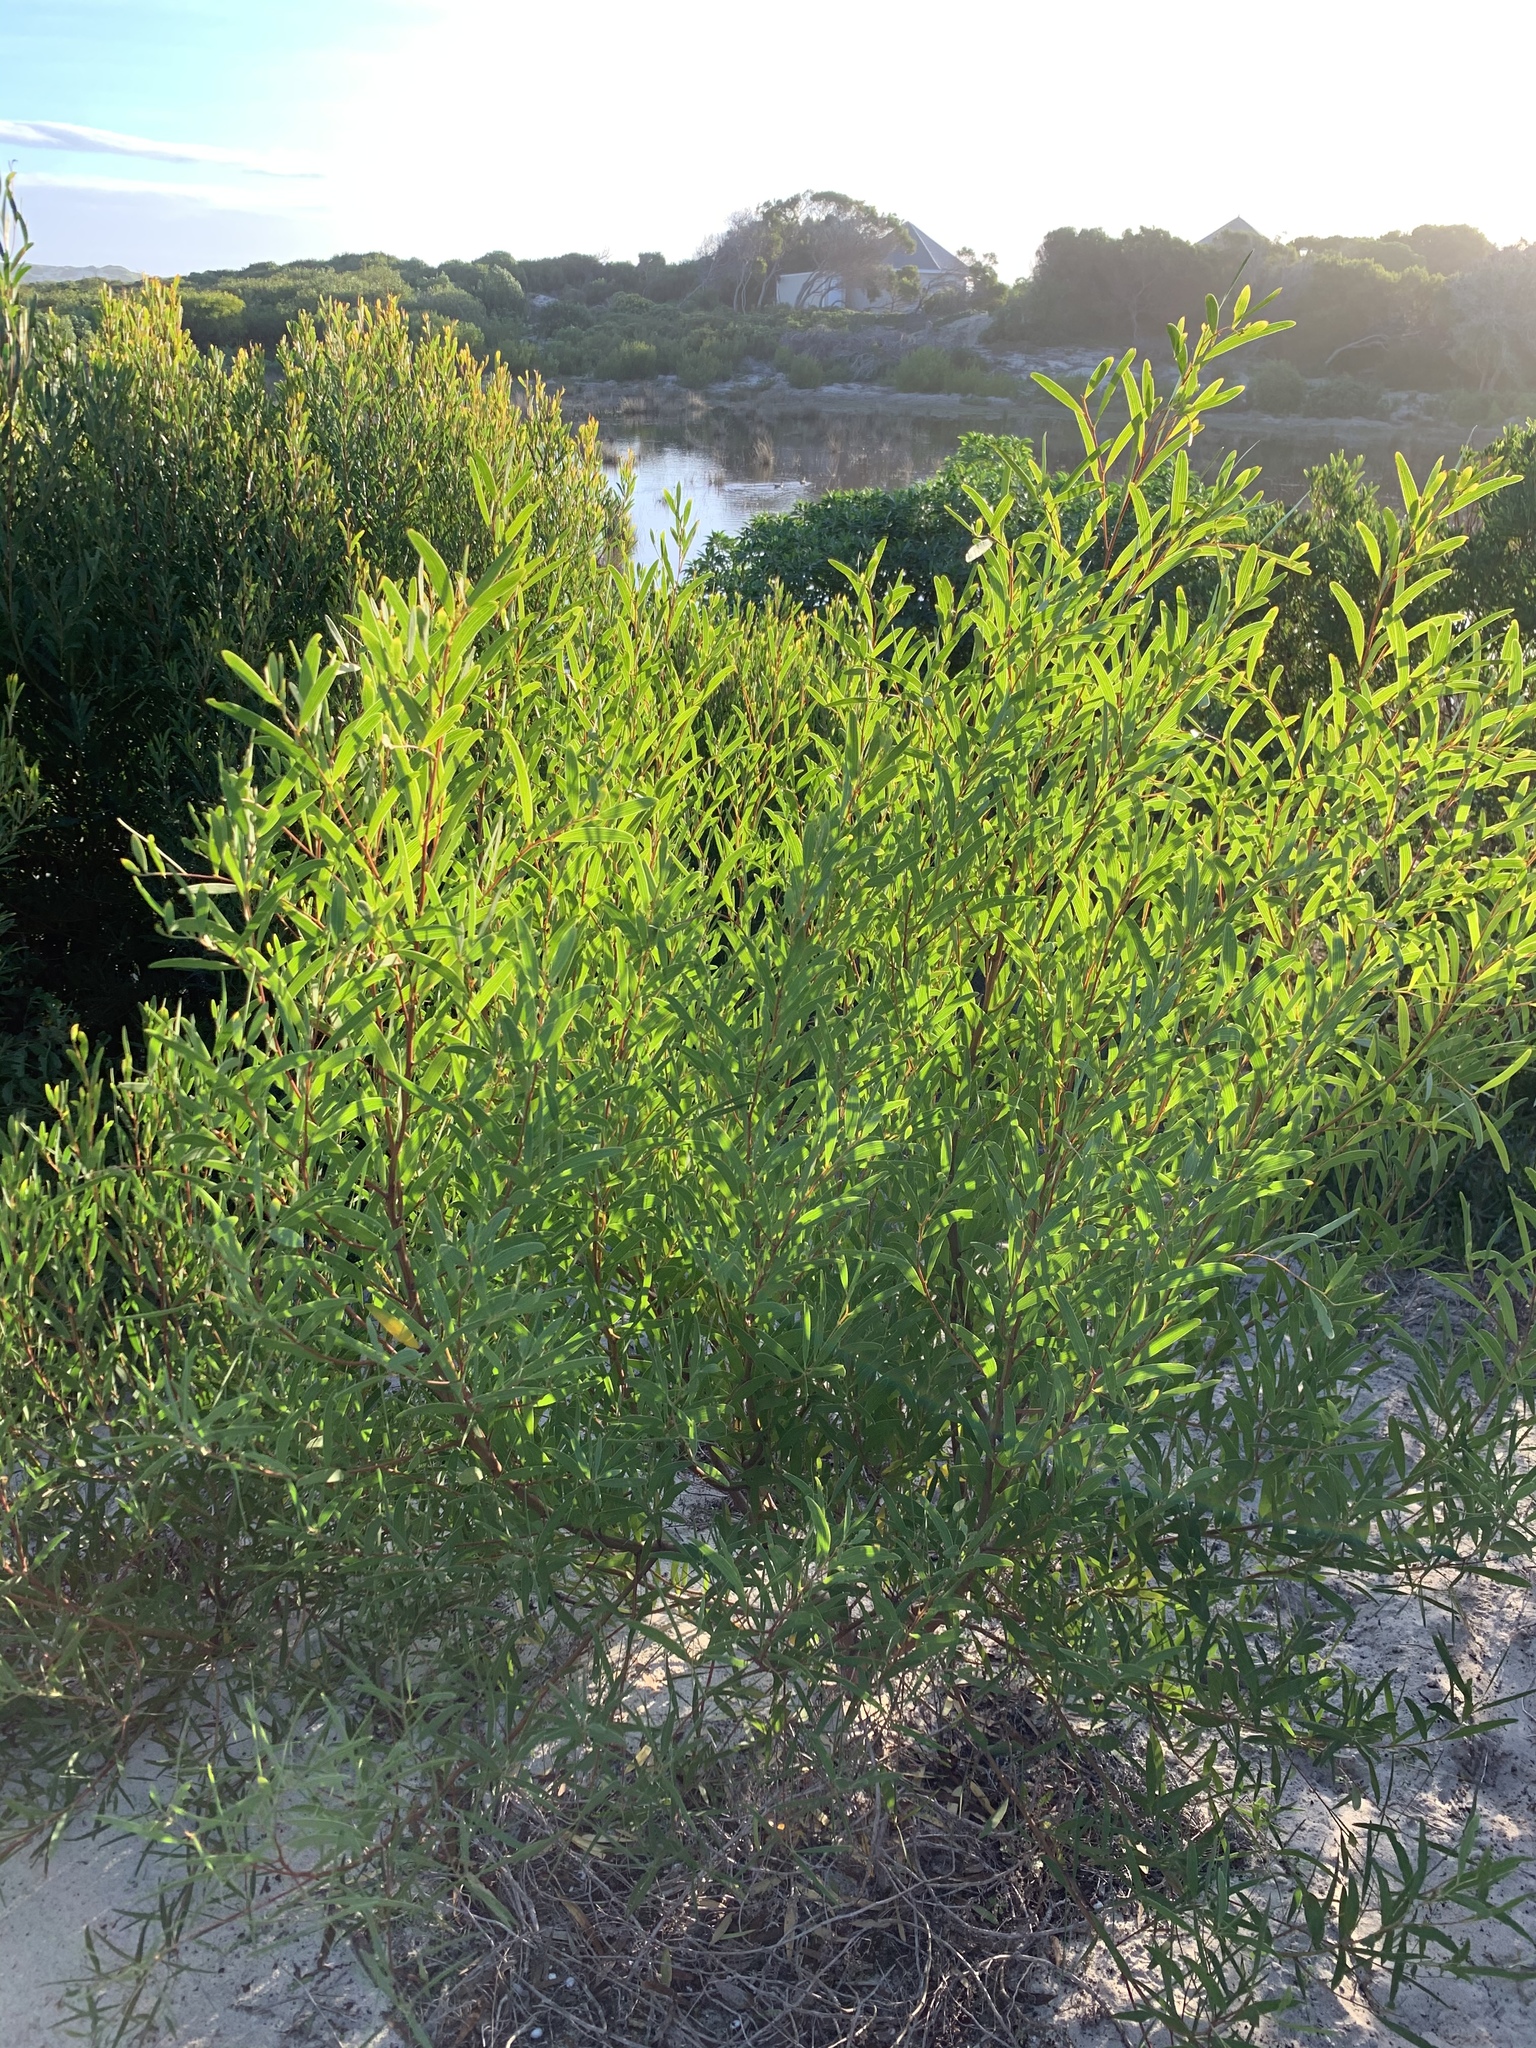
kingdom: Plantae
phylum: Tracheophyta
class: Magnoliopsida
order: Fabales
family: Fabaceae
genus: Acacia
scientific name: Acacia cyclops
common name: Coastal wattle
